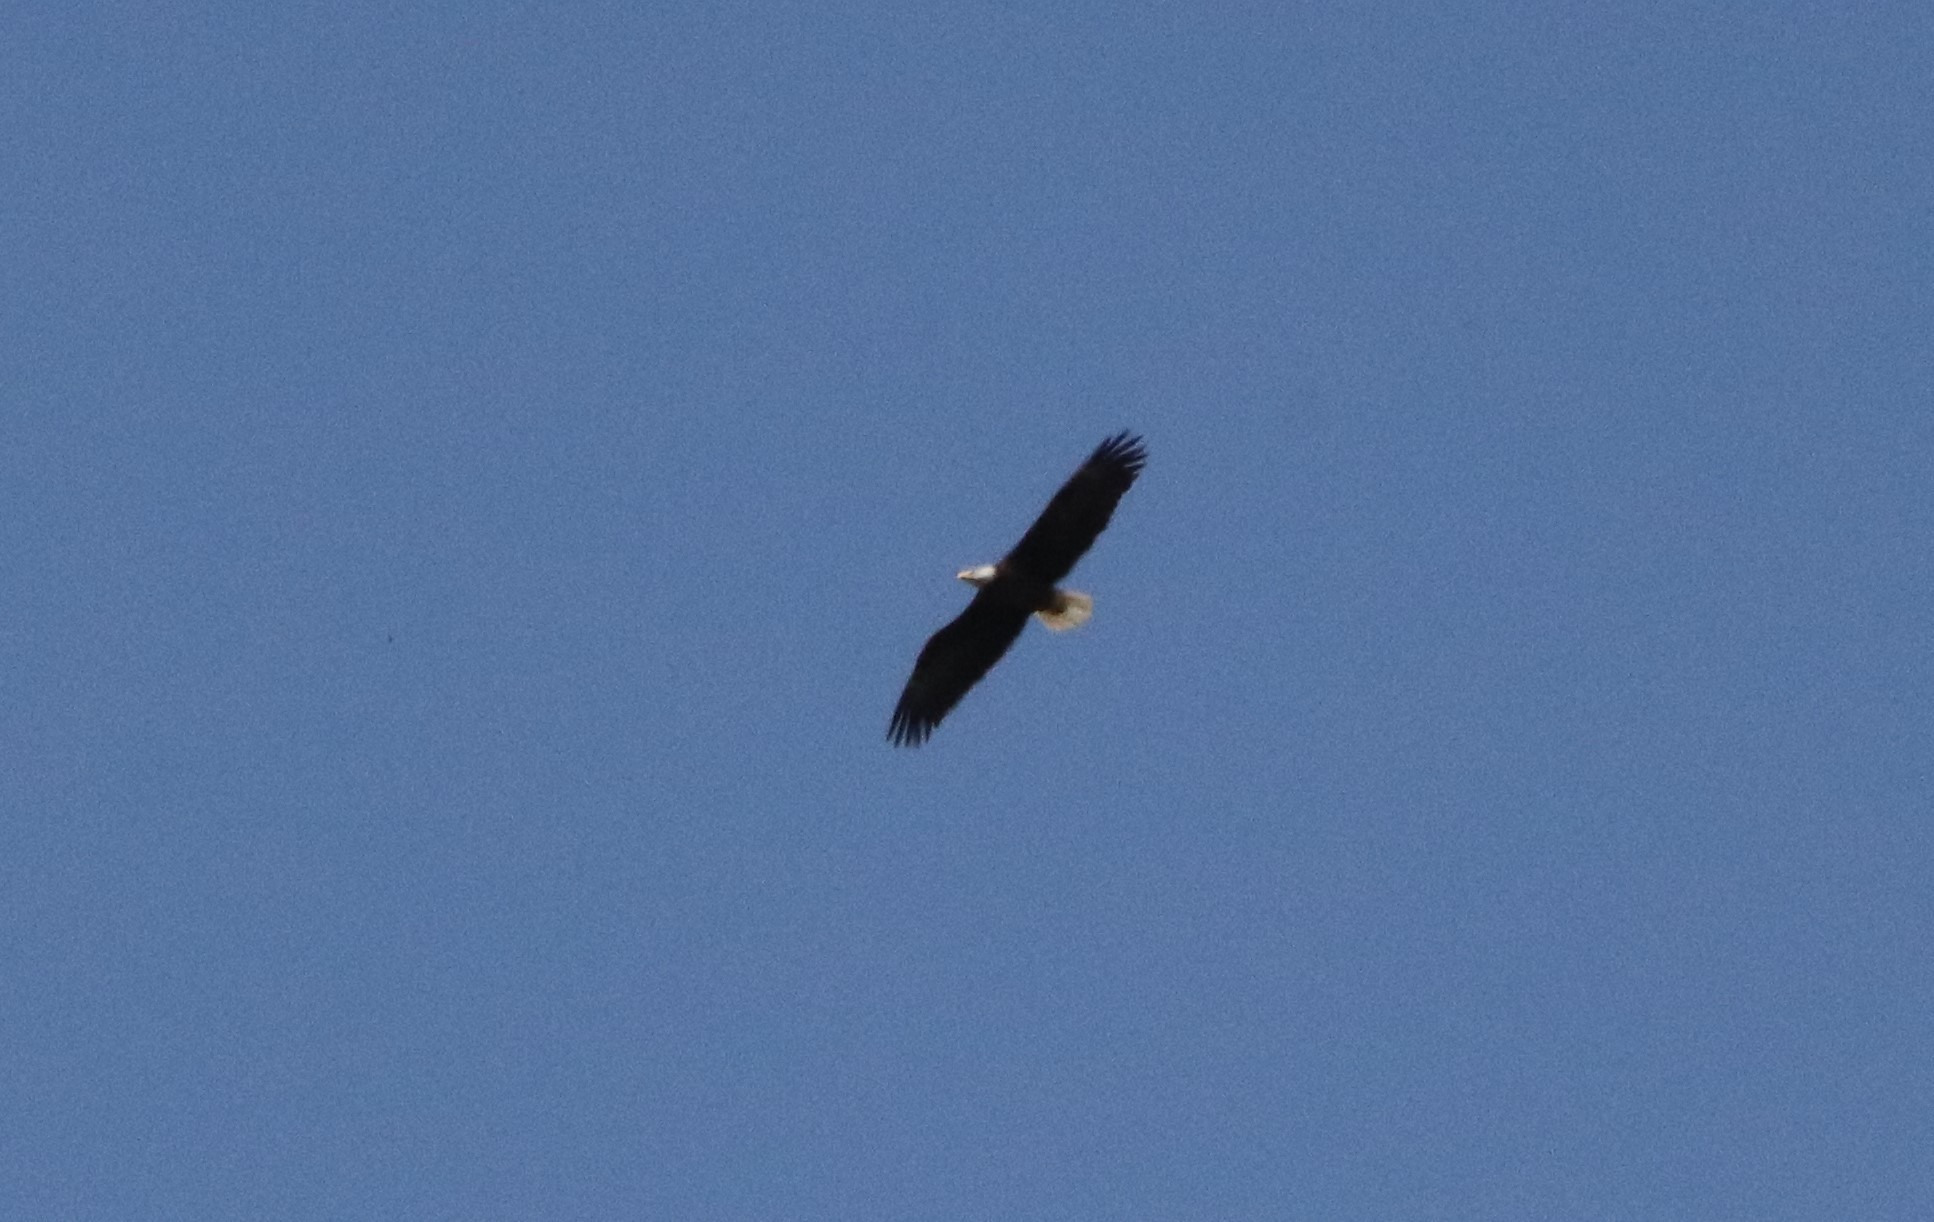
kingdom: Animalia
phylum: Chordata
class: Aves
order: Accipitriformes
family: Accipitridae
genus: Haliaeetus
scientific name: Haliaeetus leucocephalus
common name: Bald eagle
